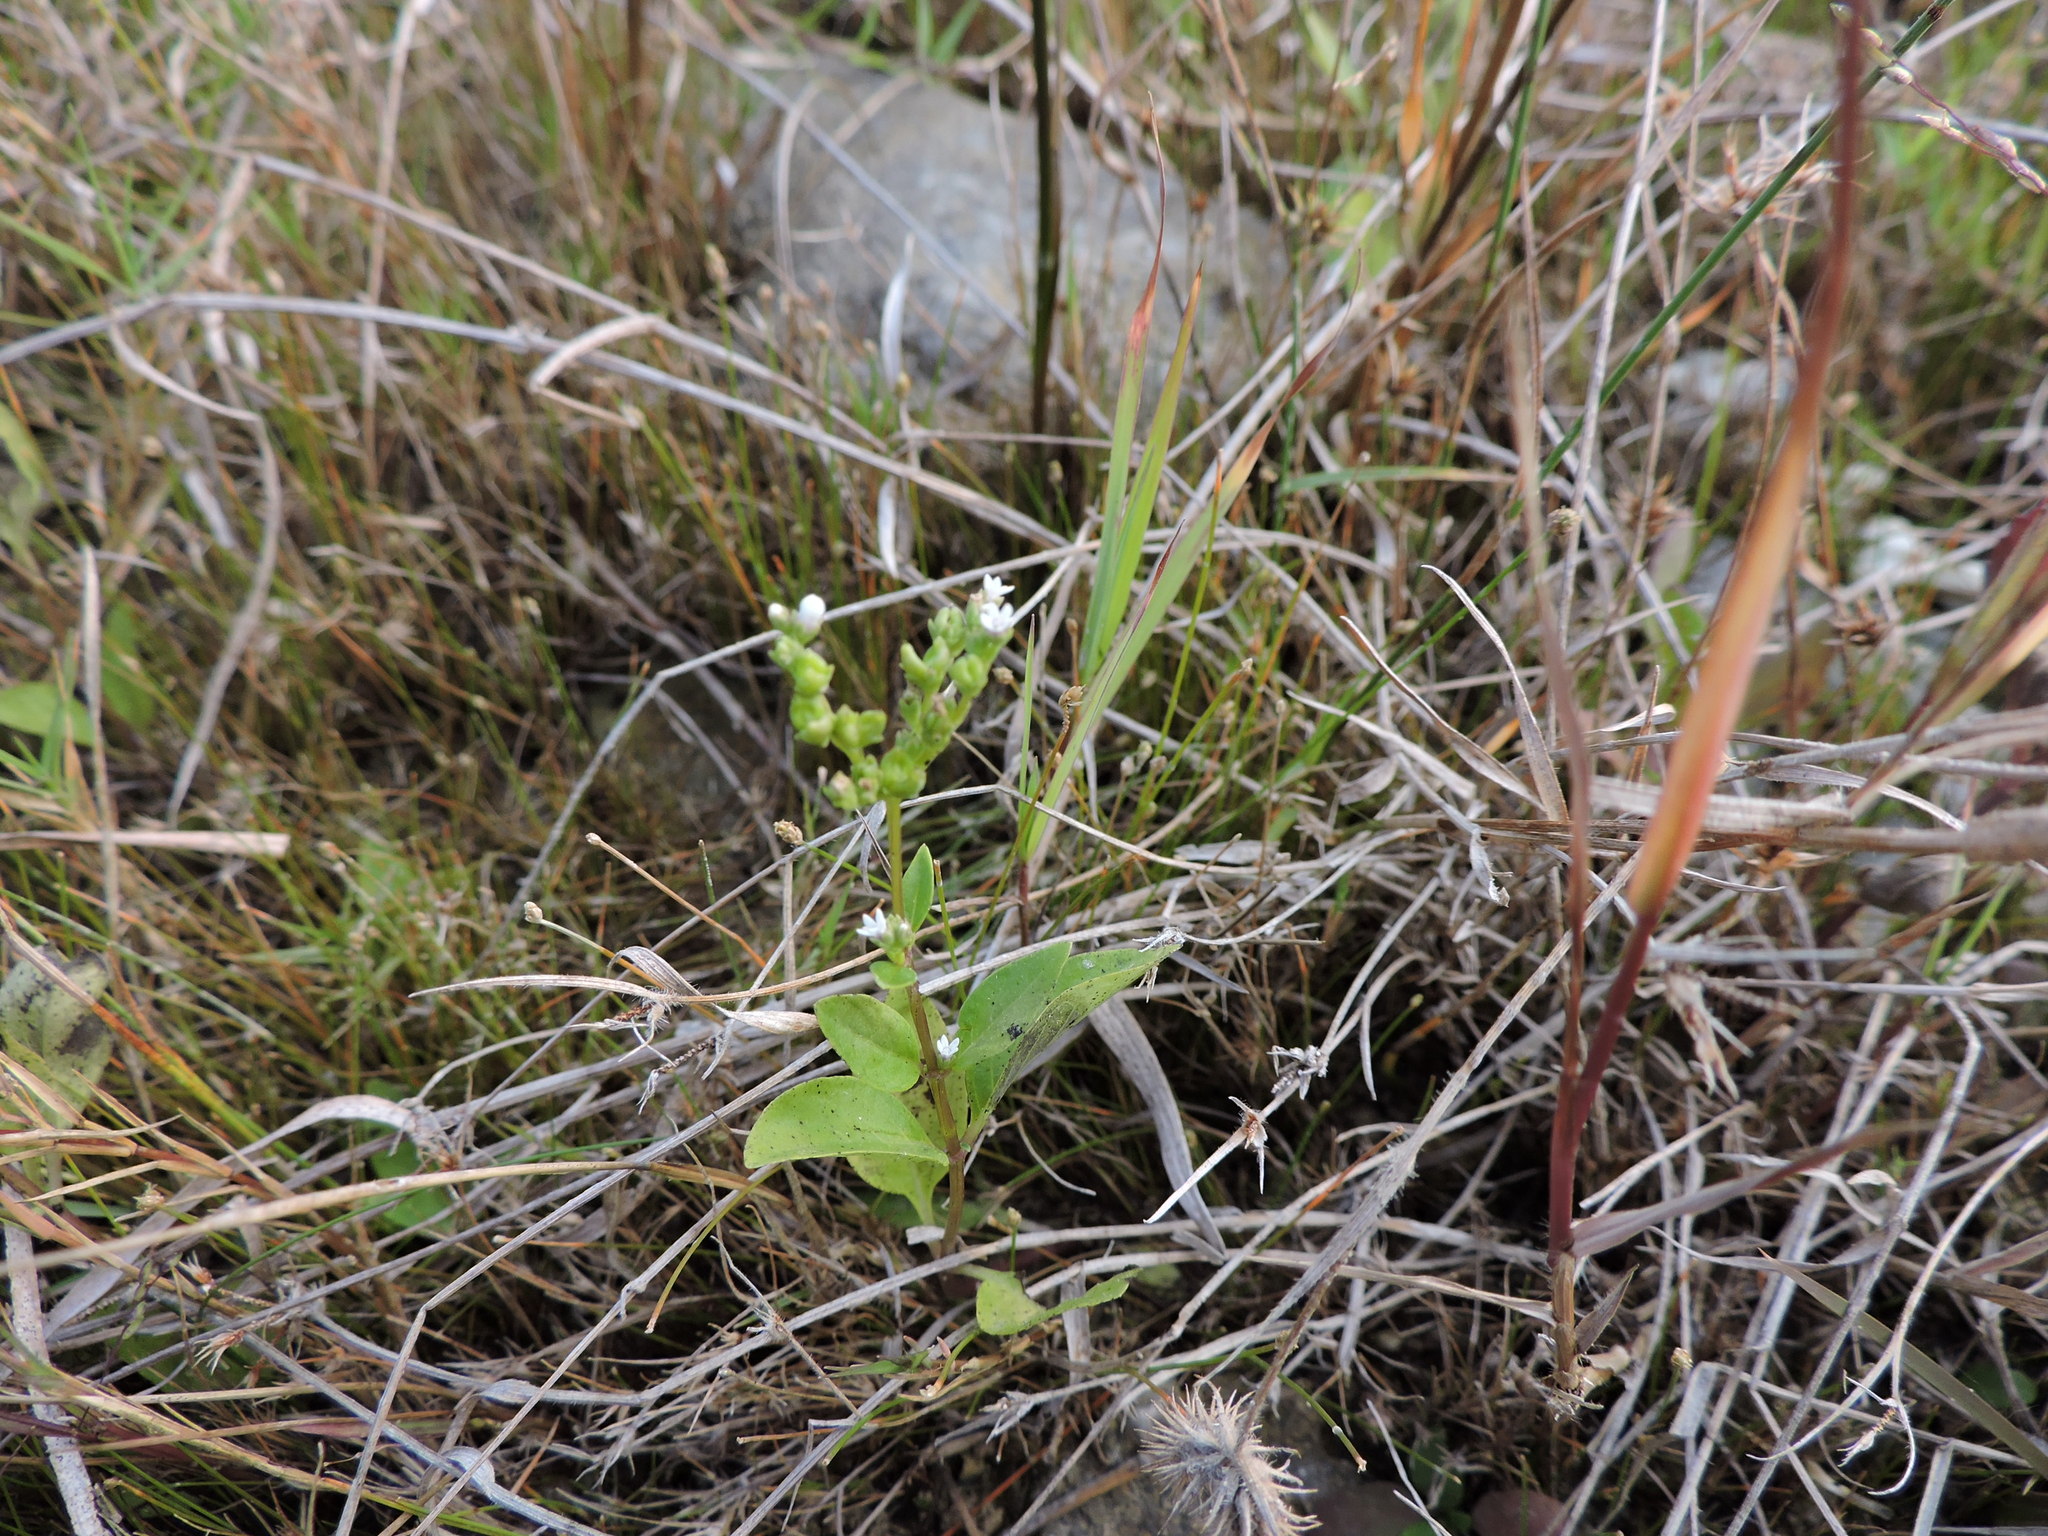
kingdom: Plantae
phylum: Tracheophyta
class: Magnoliopsida
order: Gentianales
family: Loganiaceae
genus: Mitreola
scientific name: Mitreola petiolata
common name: Lax hornpod
